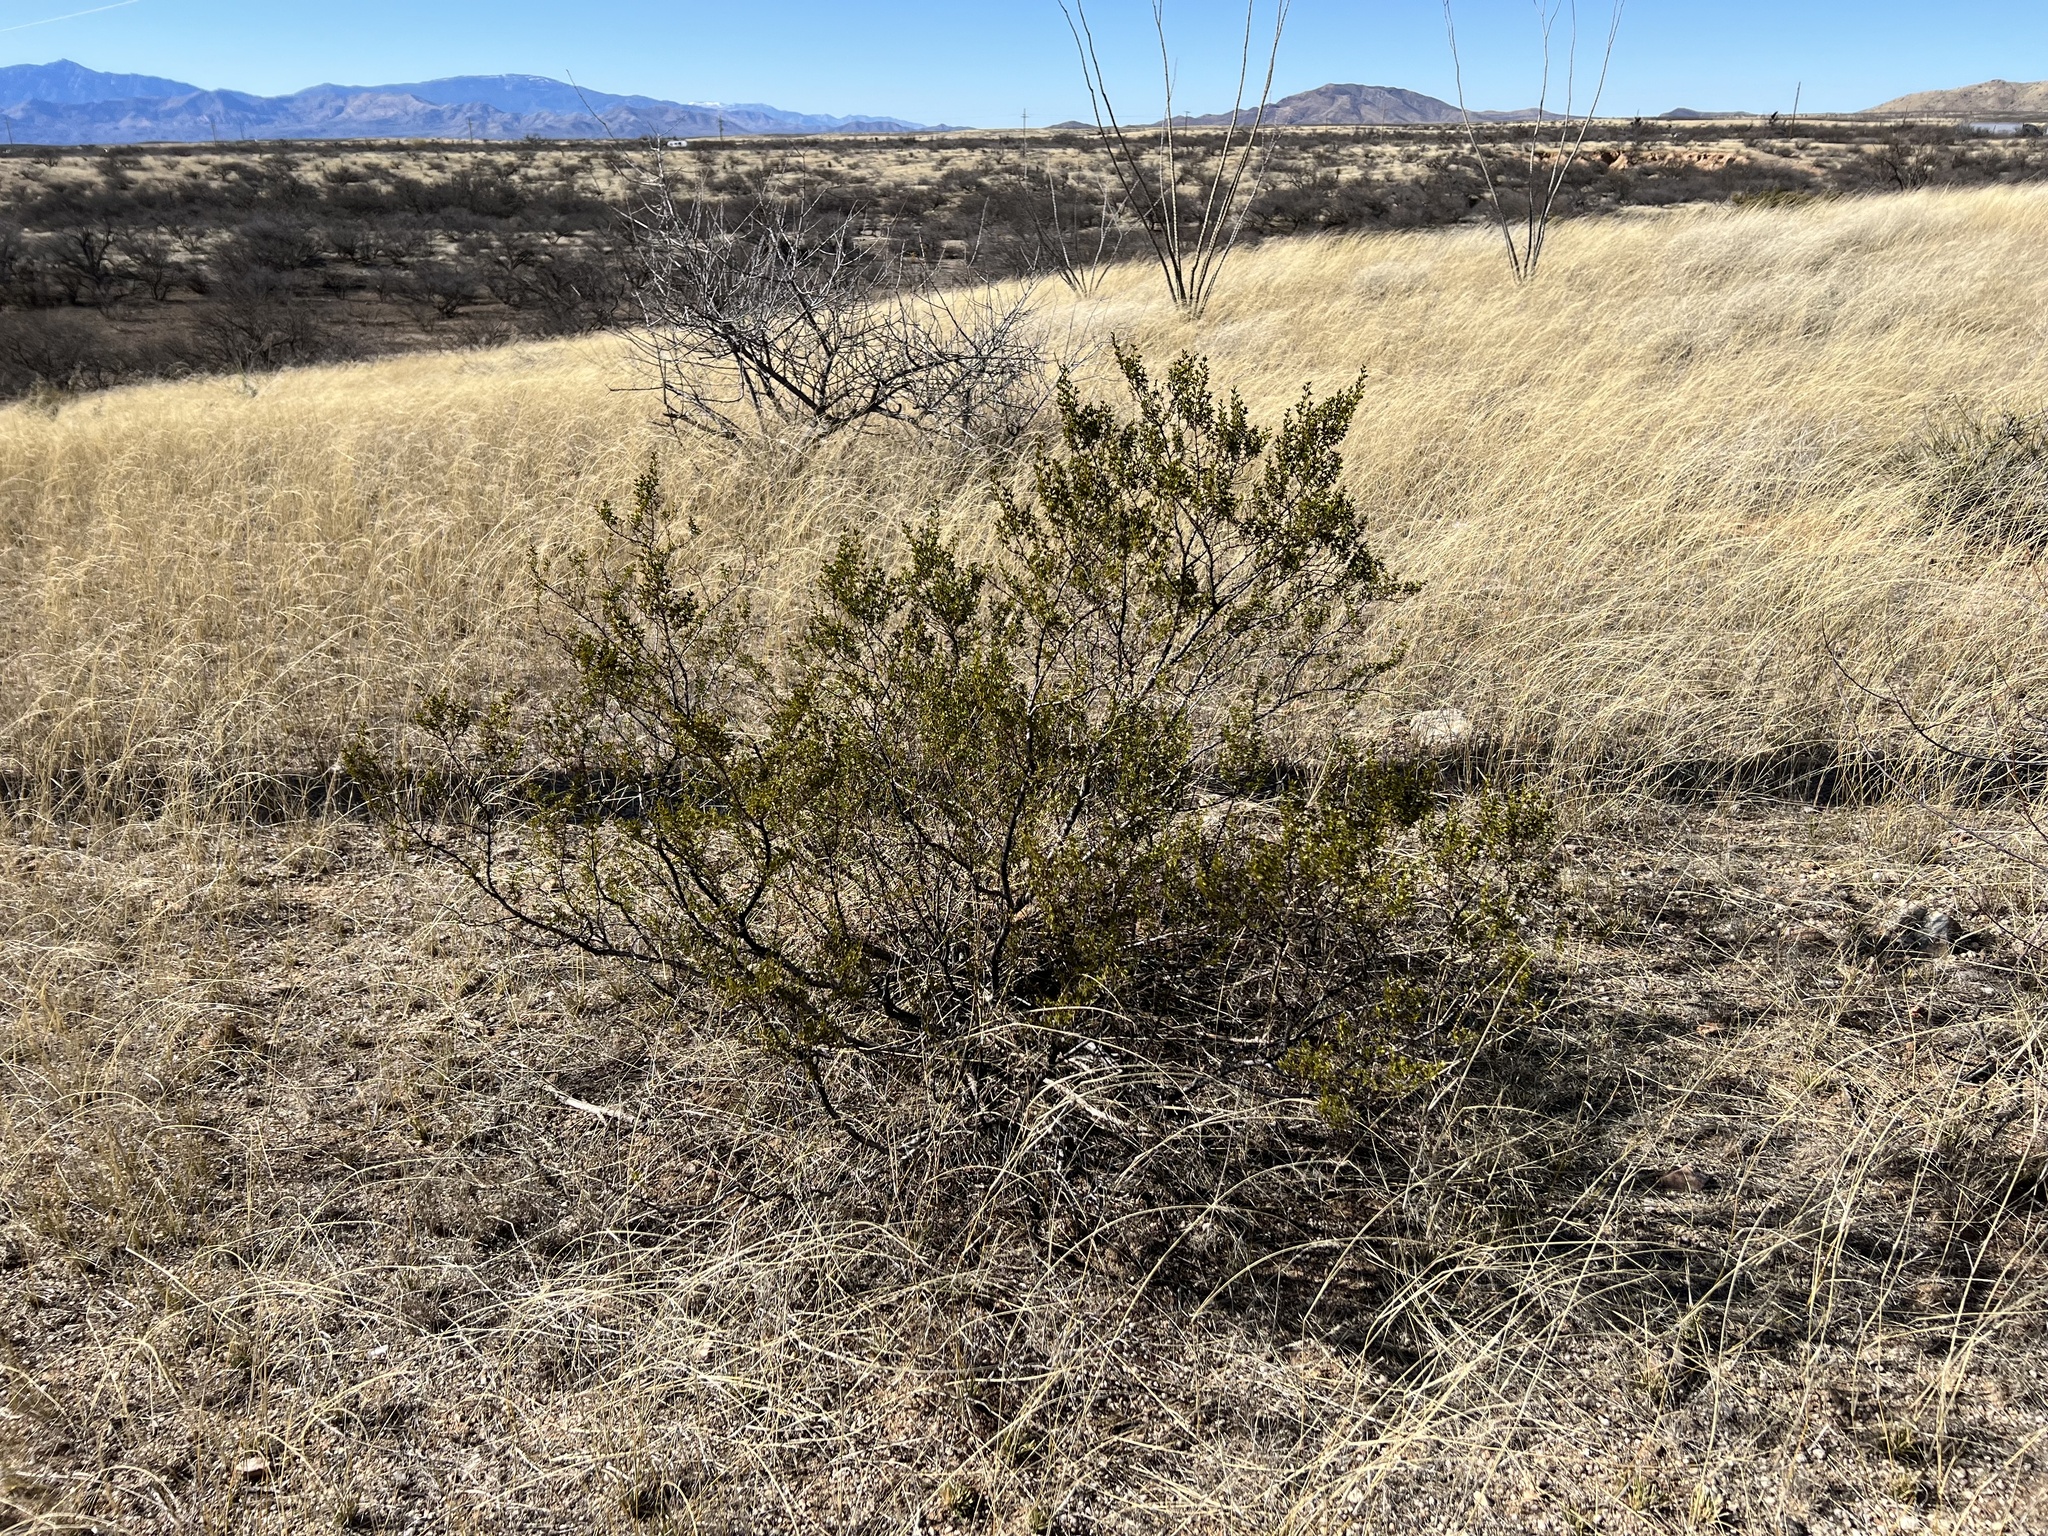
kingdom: Plantae
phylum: Tracheophyta
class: Magnoliopsida
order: Zygophyllales
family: Zygophyllaceae
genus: Larrea
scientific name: Larrea tridentata
